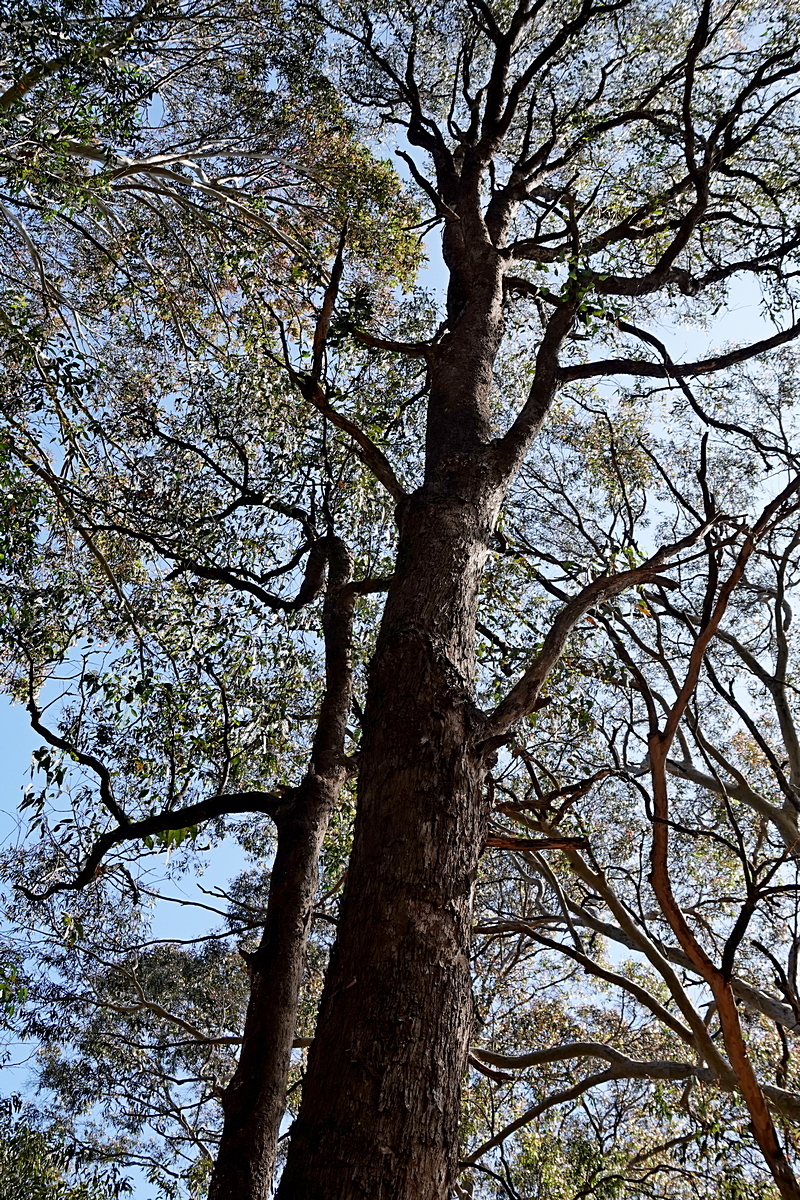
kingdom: Plantae
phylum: Tracheophyta
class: Magnoliopsida
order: Myrtales
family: Myrtaceae
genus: Eucalyptus
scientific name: Eucalyptus longifolia
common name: Woollybutt
